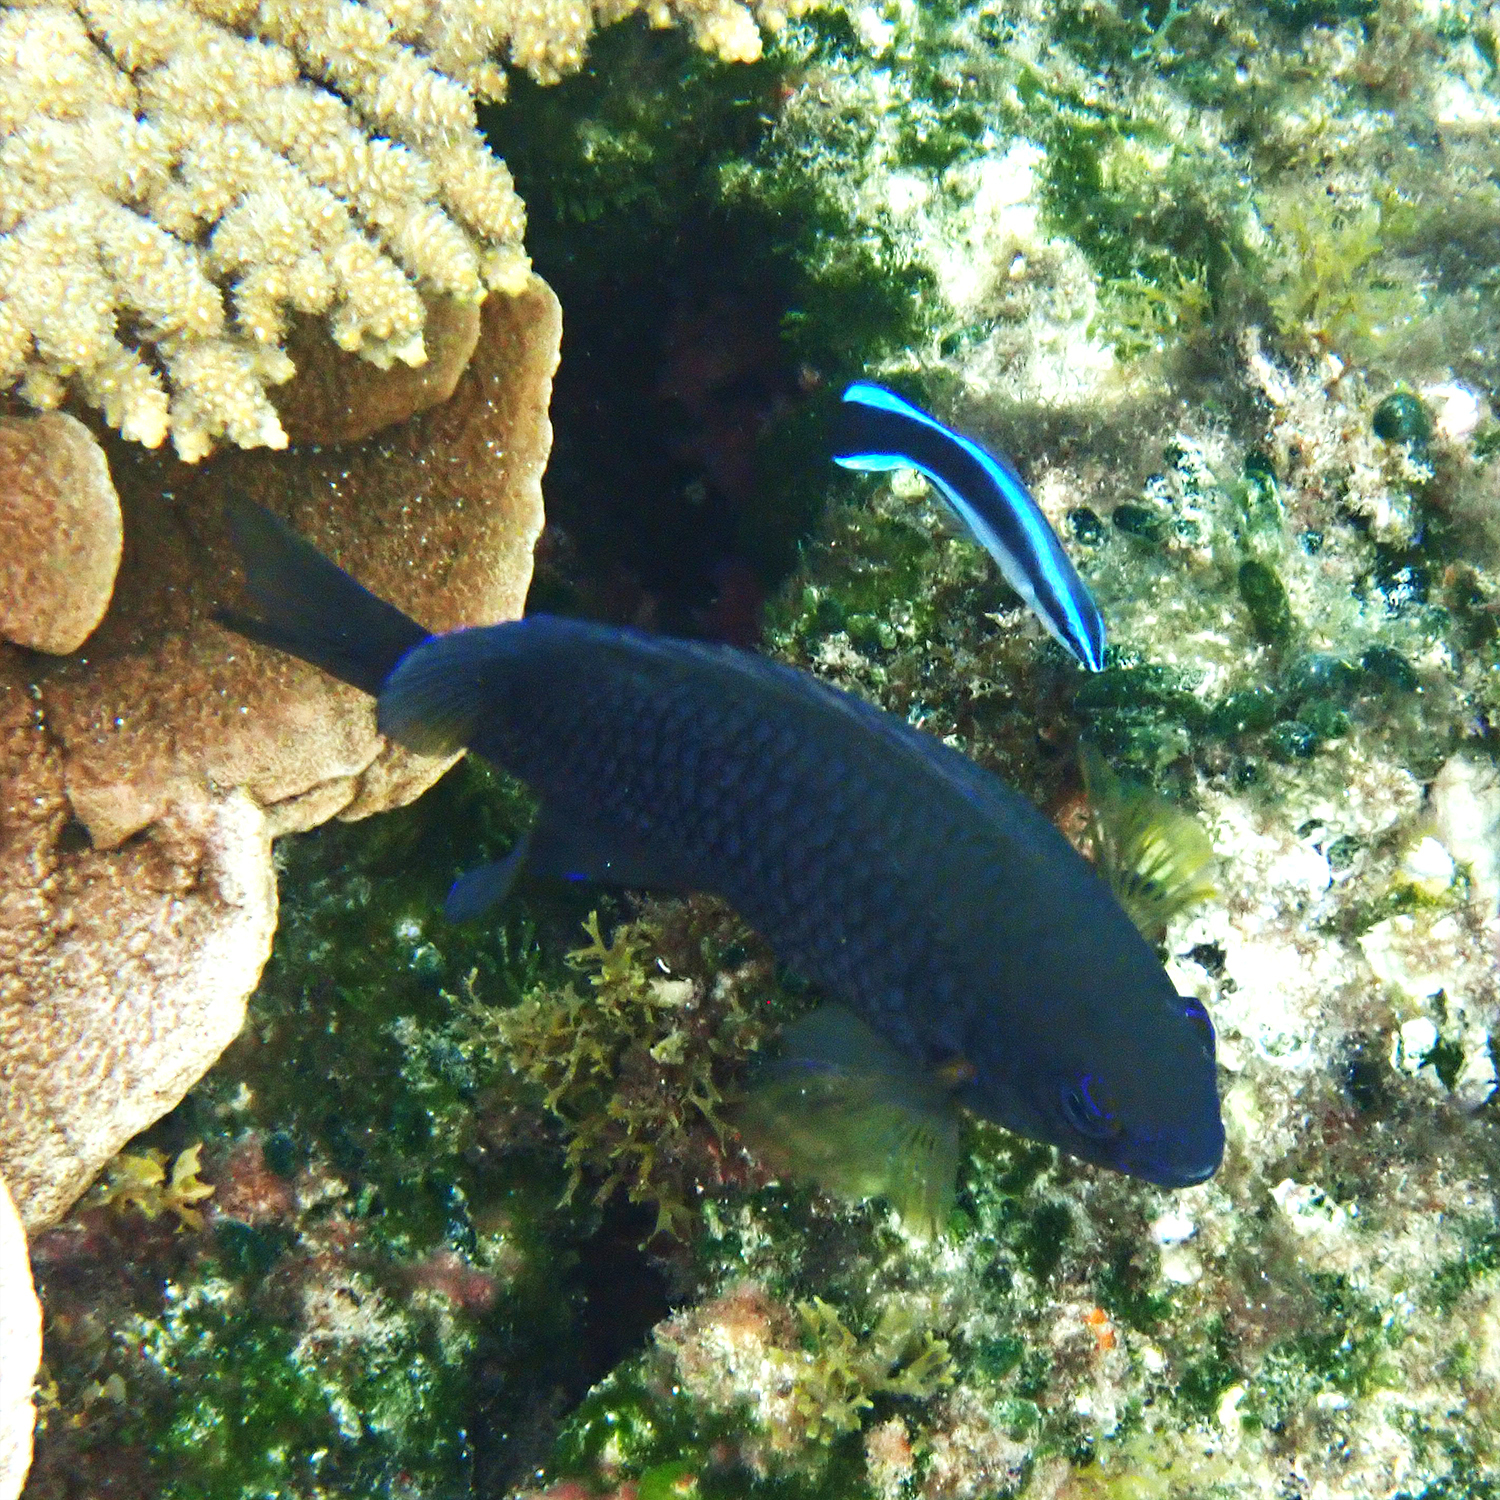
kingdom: Animalia
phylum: Chordata
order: Perciformes
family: Labridae
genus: Labroides
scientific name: Labroides dimidiatus
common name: Blue diesel wrasse
